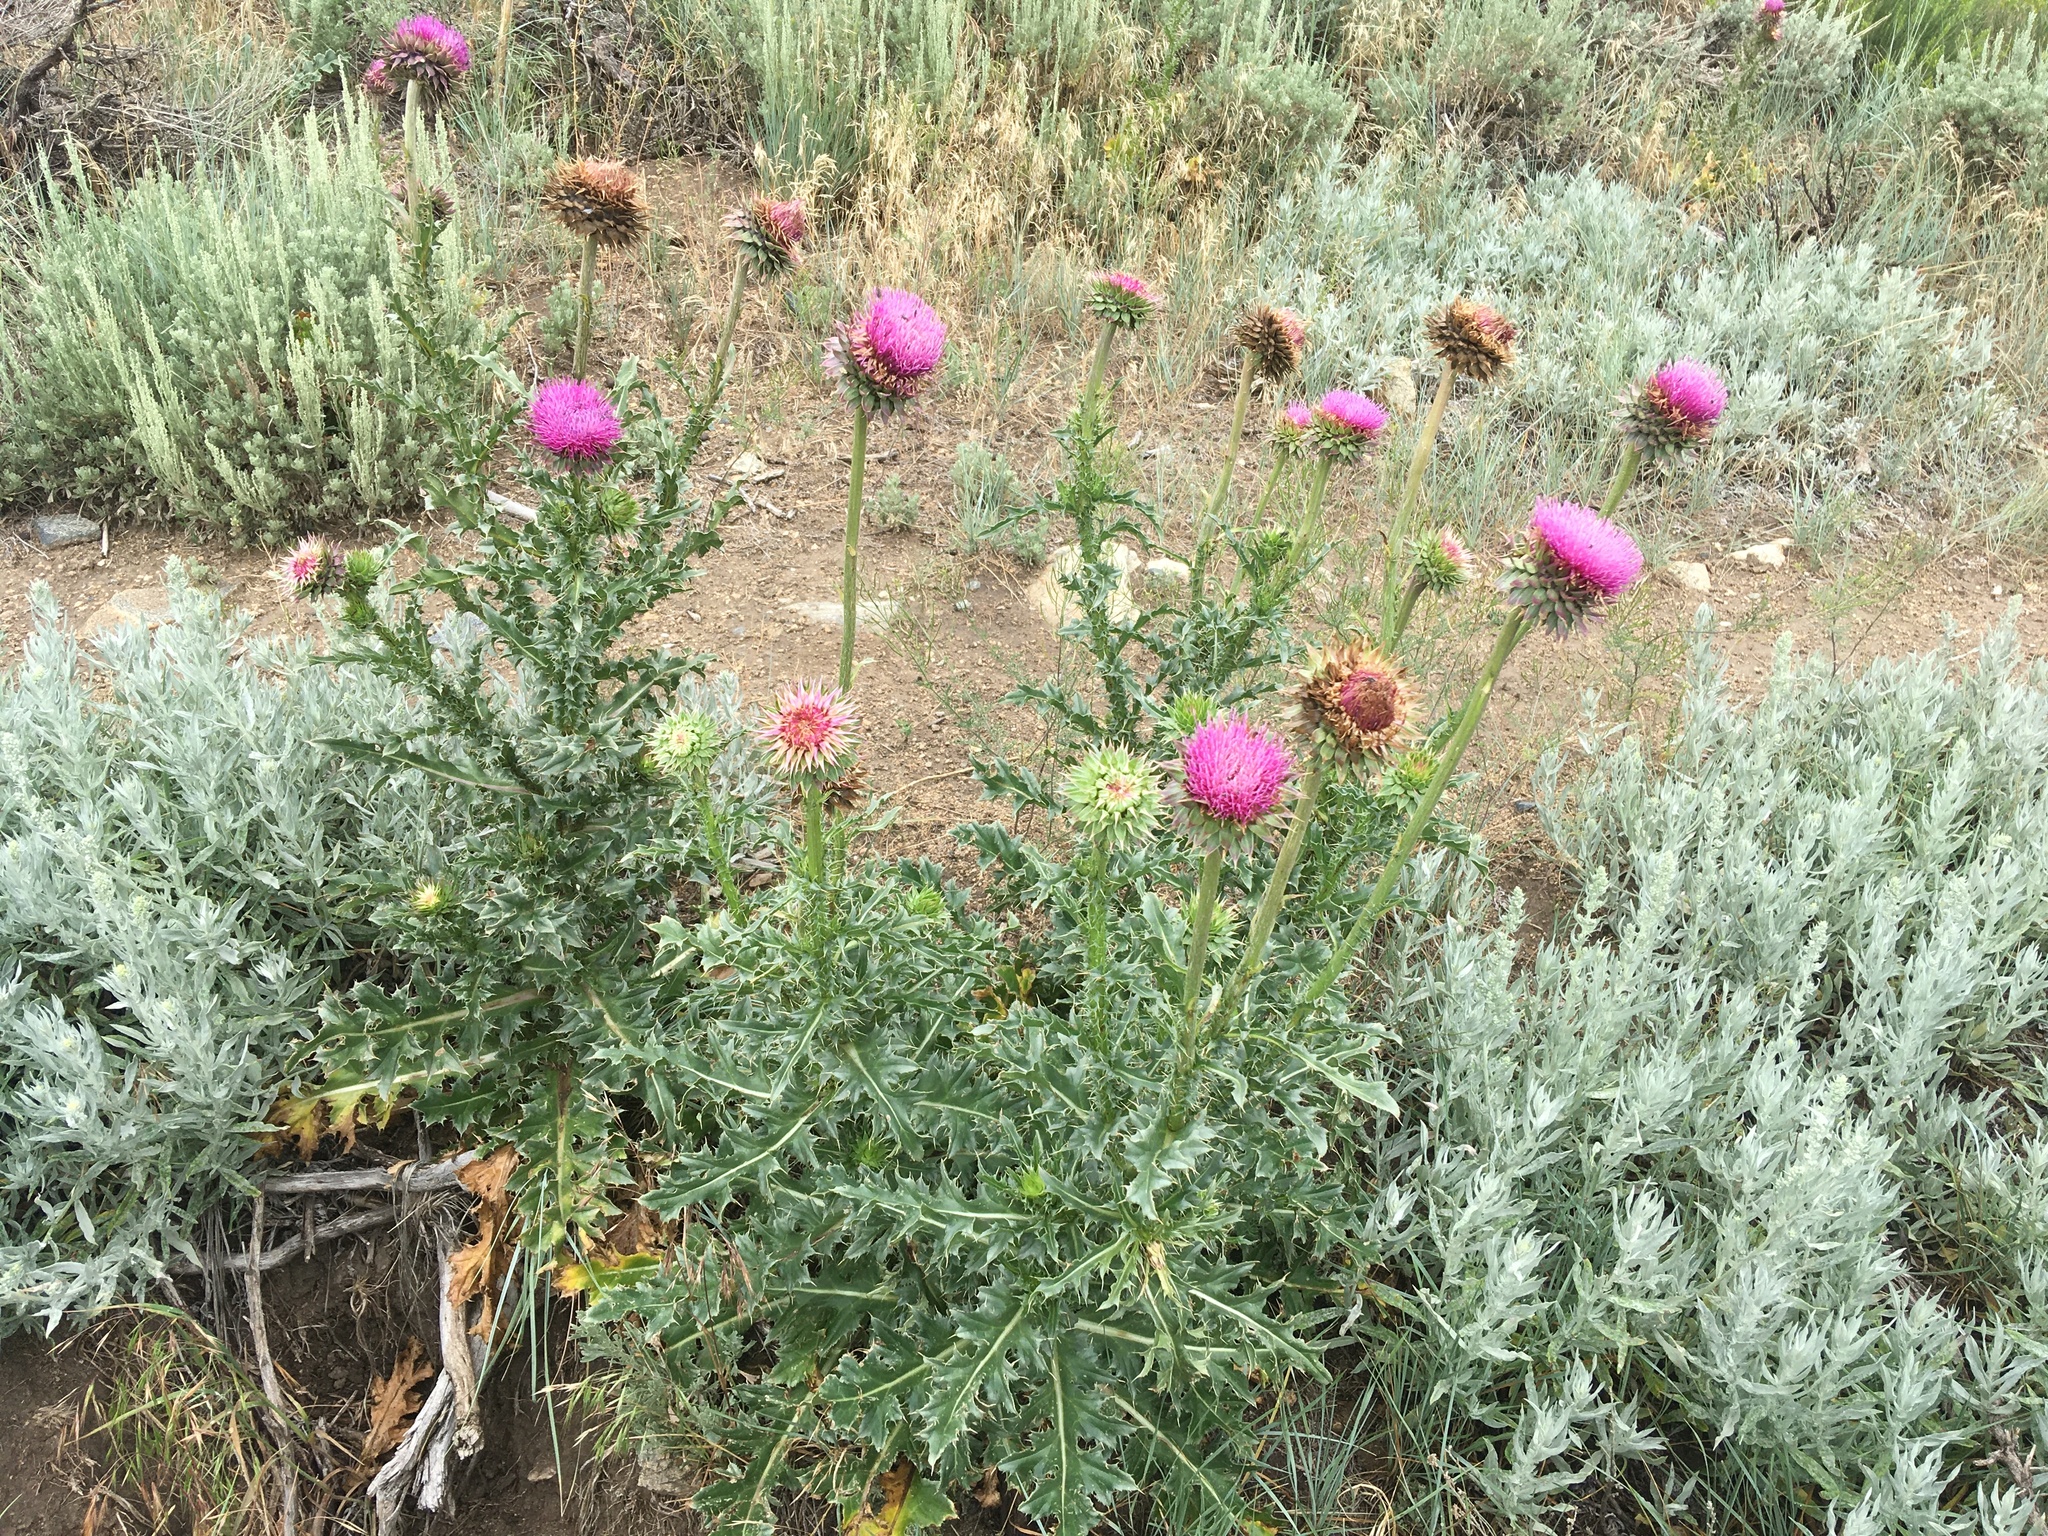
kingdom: Plantae
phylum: Tracheophyta
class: Magnoliopsida
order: Asterales
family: Asteraceae
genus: Carduus
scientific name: Carduus nutans
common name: Musk thistle
